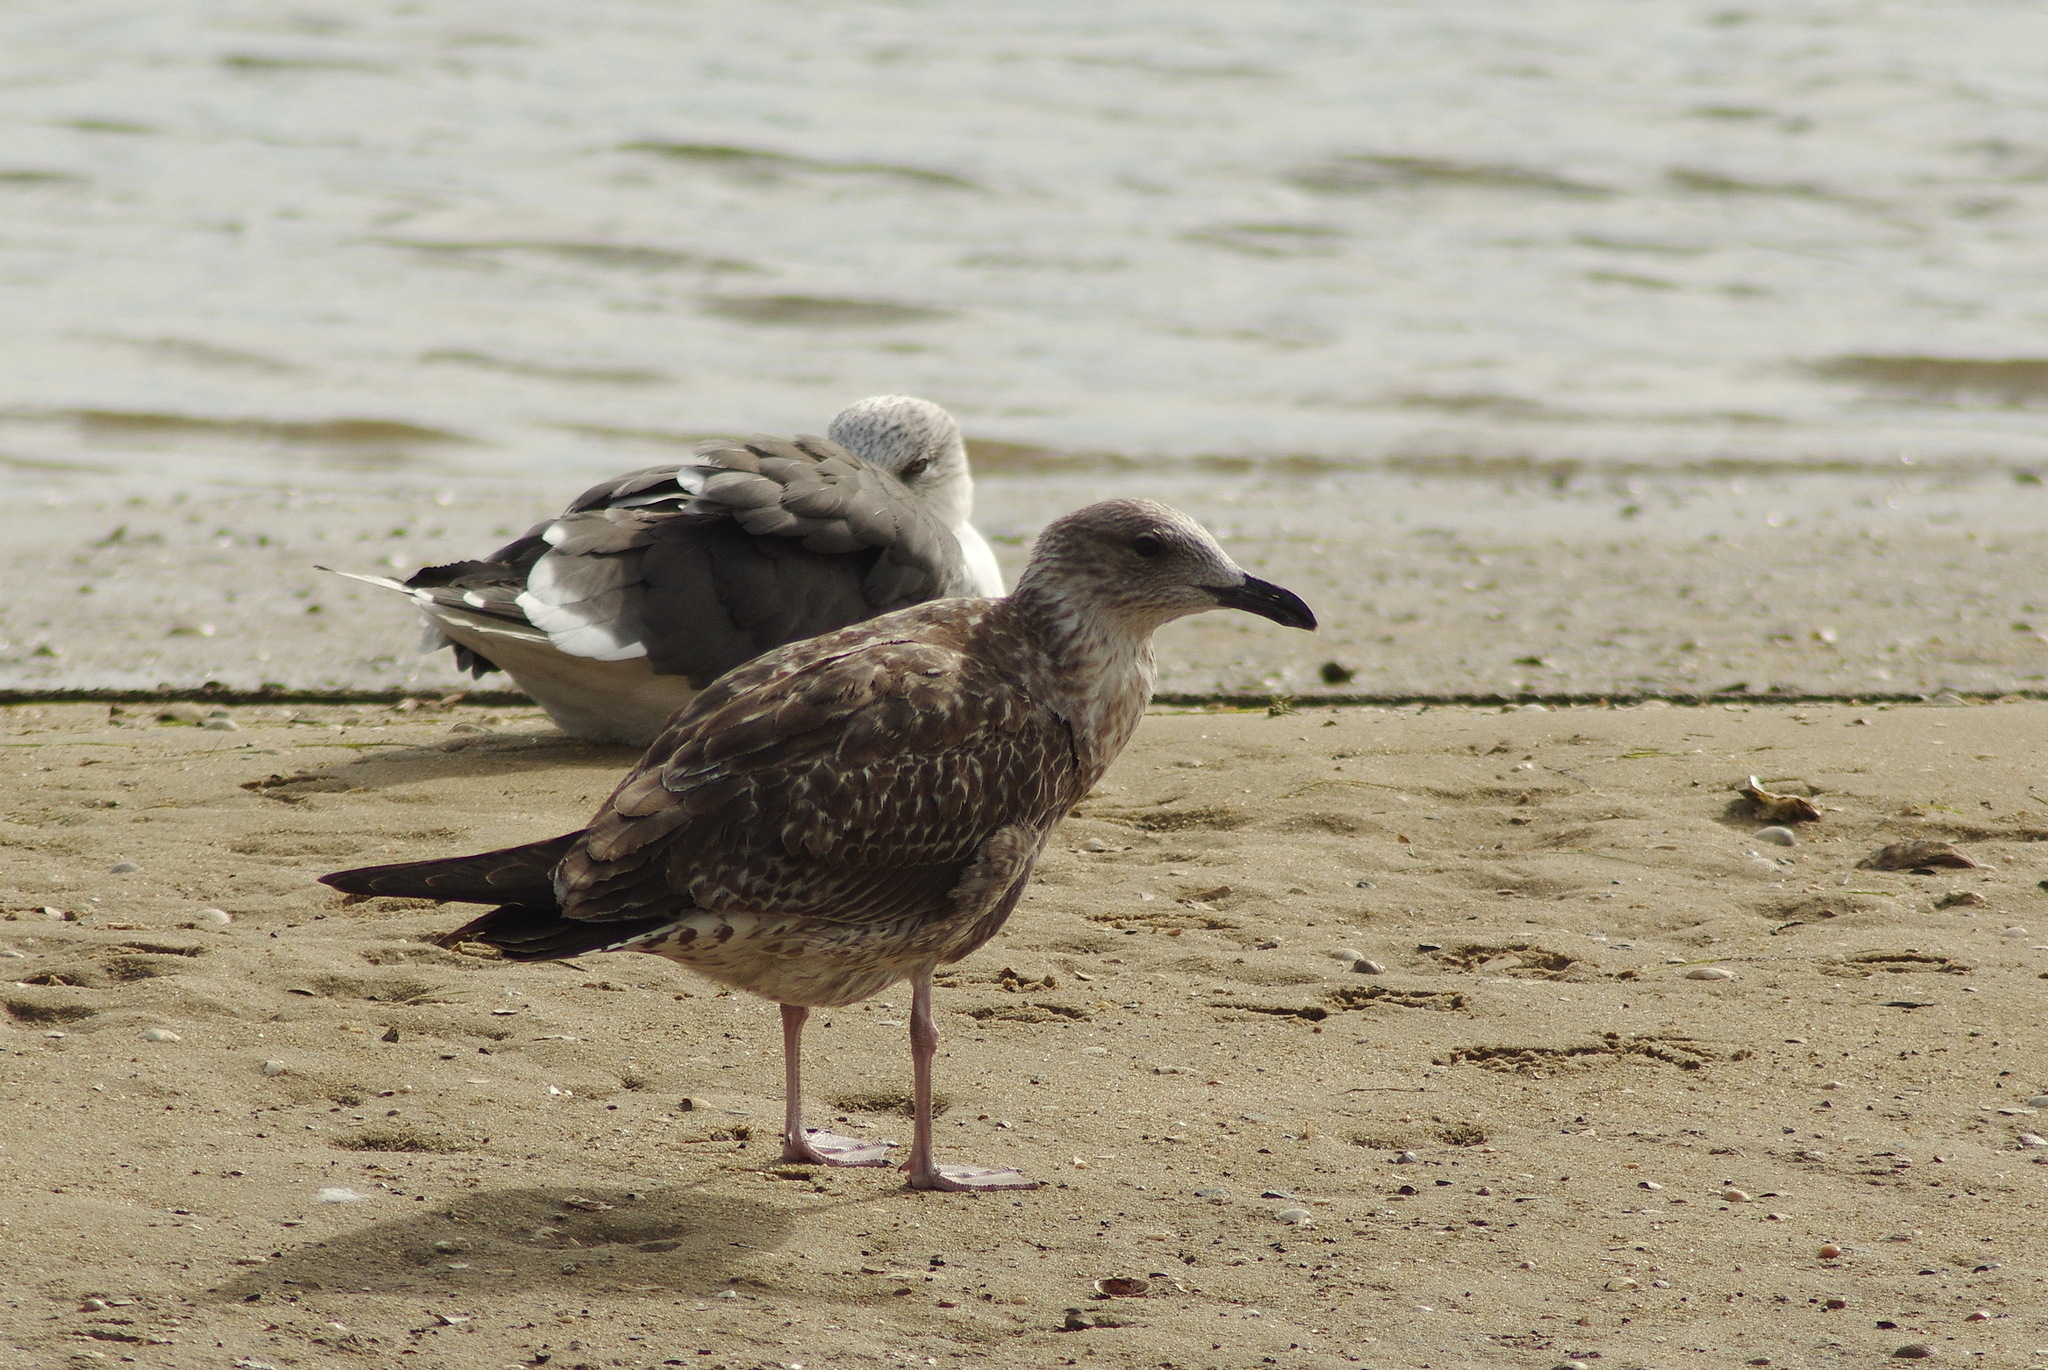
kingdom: Animalia
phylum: Chordata
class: Aves
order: Charadriiformes
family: Laridae
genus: Larus
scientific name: Larus fuscus
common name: Lesser black-backed gull
